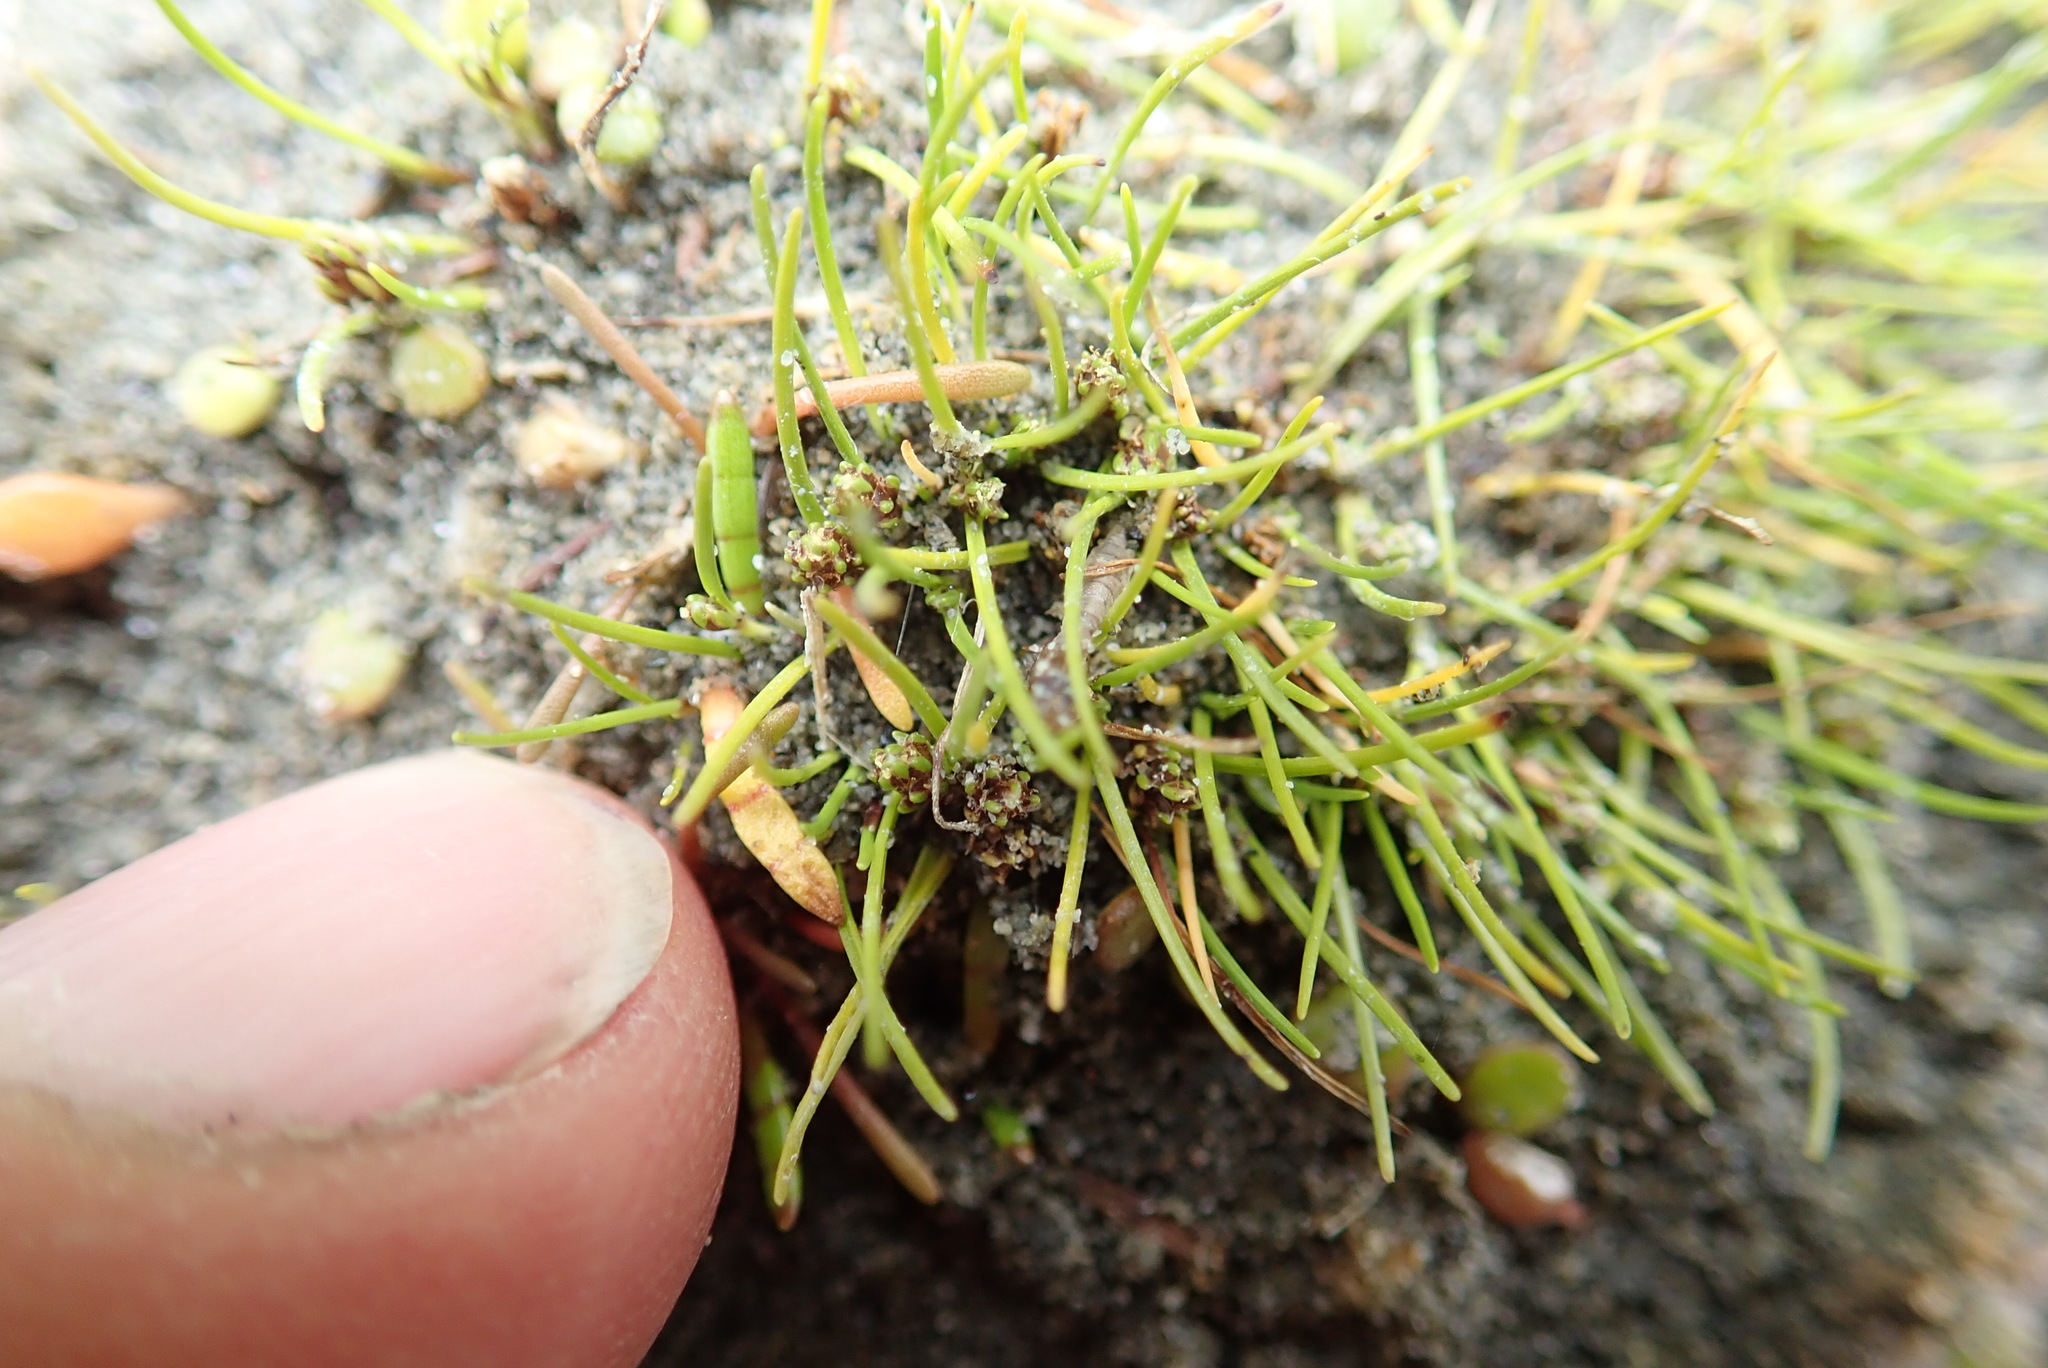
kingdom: Plantae
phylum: Tracheophyta
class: Liliopsida
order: Poales
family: Cyperaceae
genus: Isolepis
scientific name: Isolepis basilaris
